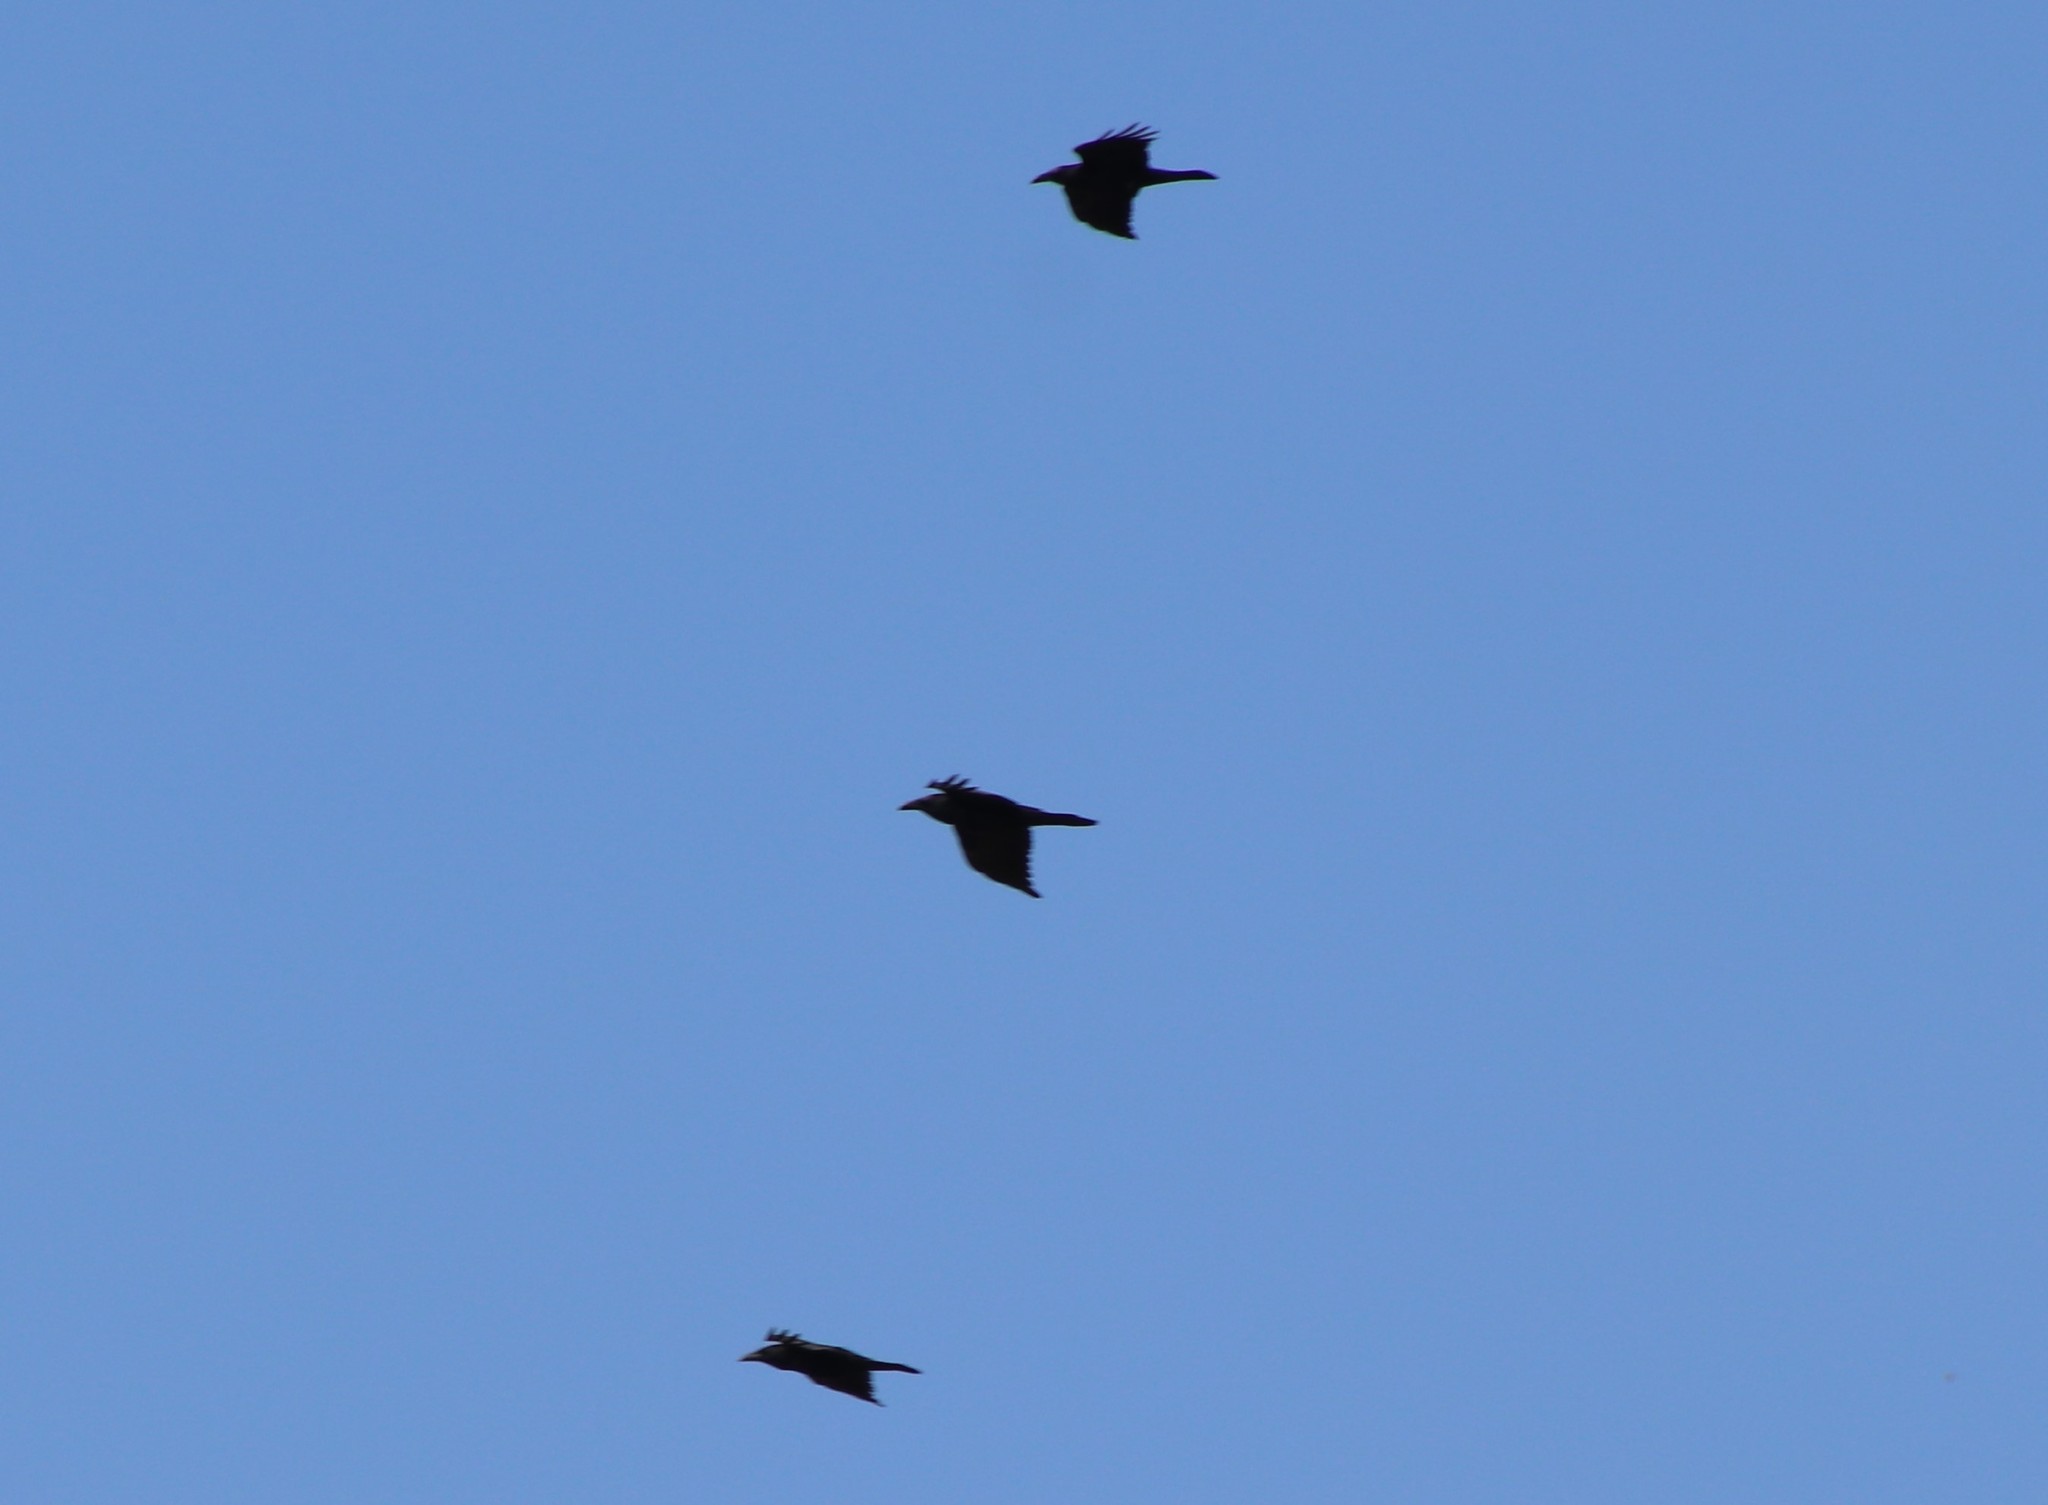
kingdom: Animalia
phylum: Chordata
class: Aves
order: Passeriformes
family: Corvidae
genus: Corvus
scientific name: Corvus corax
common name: Common raven
